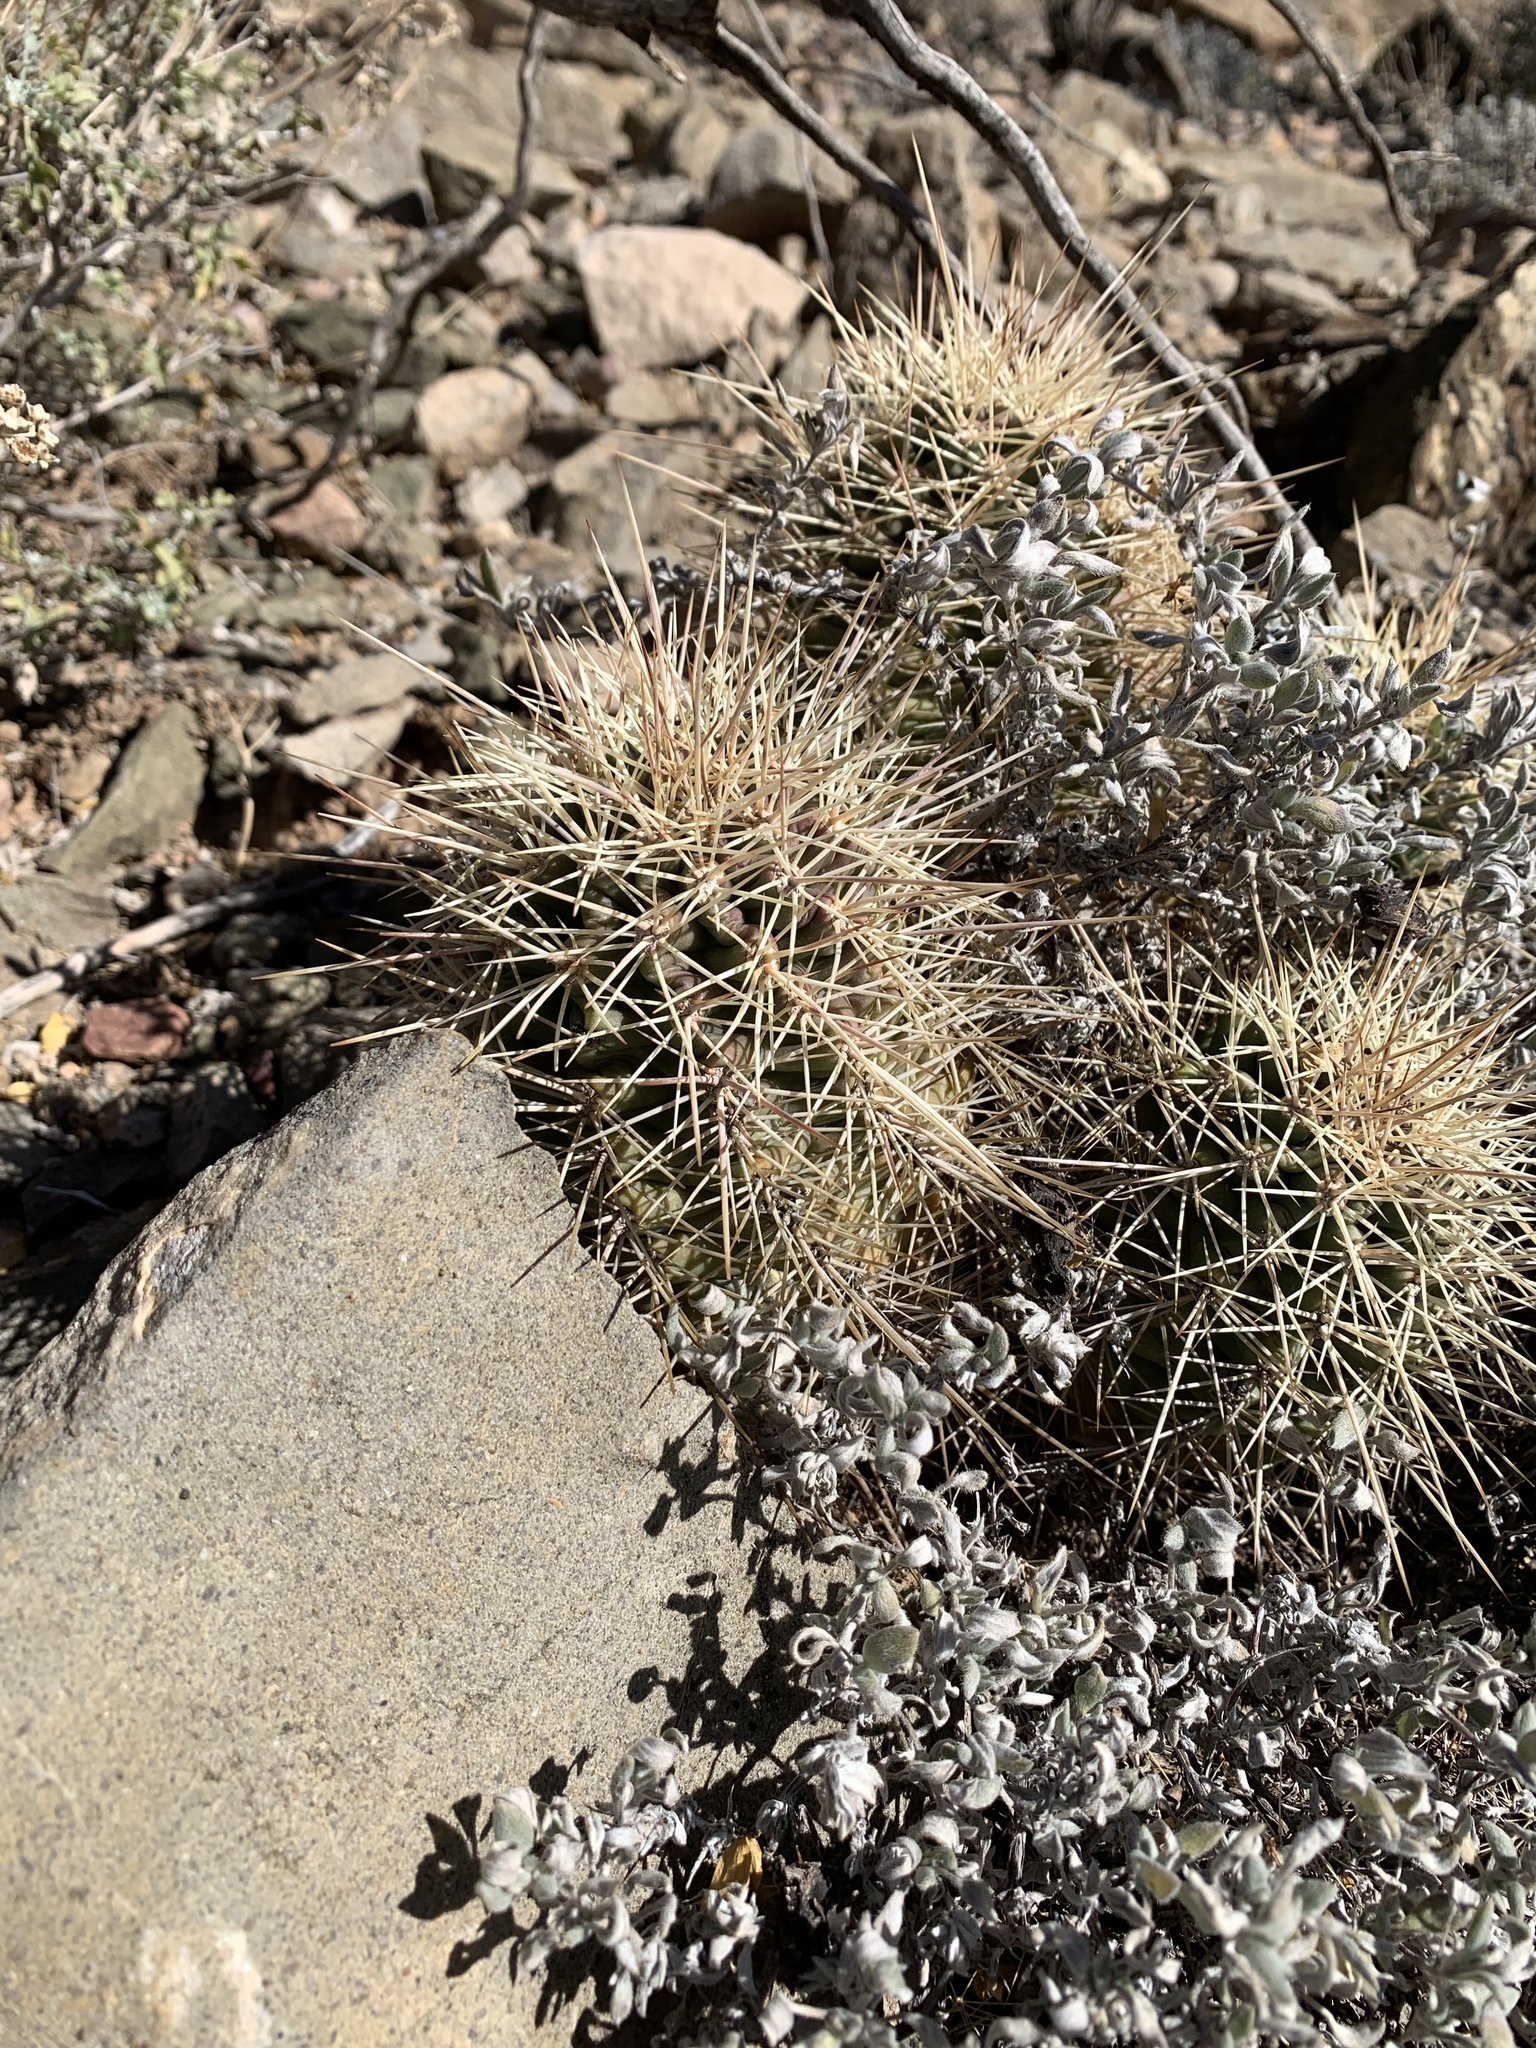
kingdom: Plantae
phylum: Tracheophyta
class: Magnoliopsida
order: Caryophyllales
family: Cactaceae
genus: Echinocereus
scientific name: Echinocereus coccineus
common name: Scarlet hedgehog cactus
